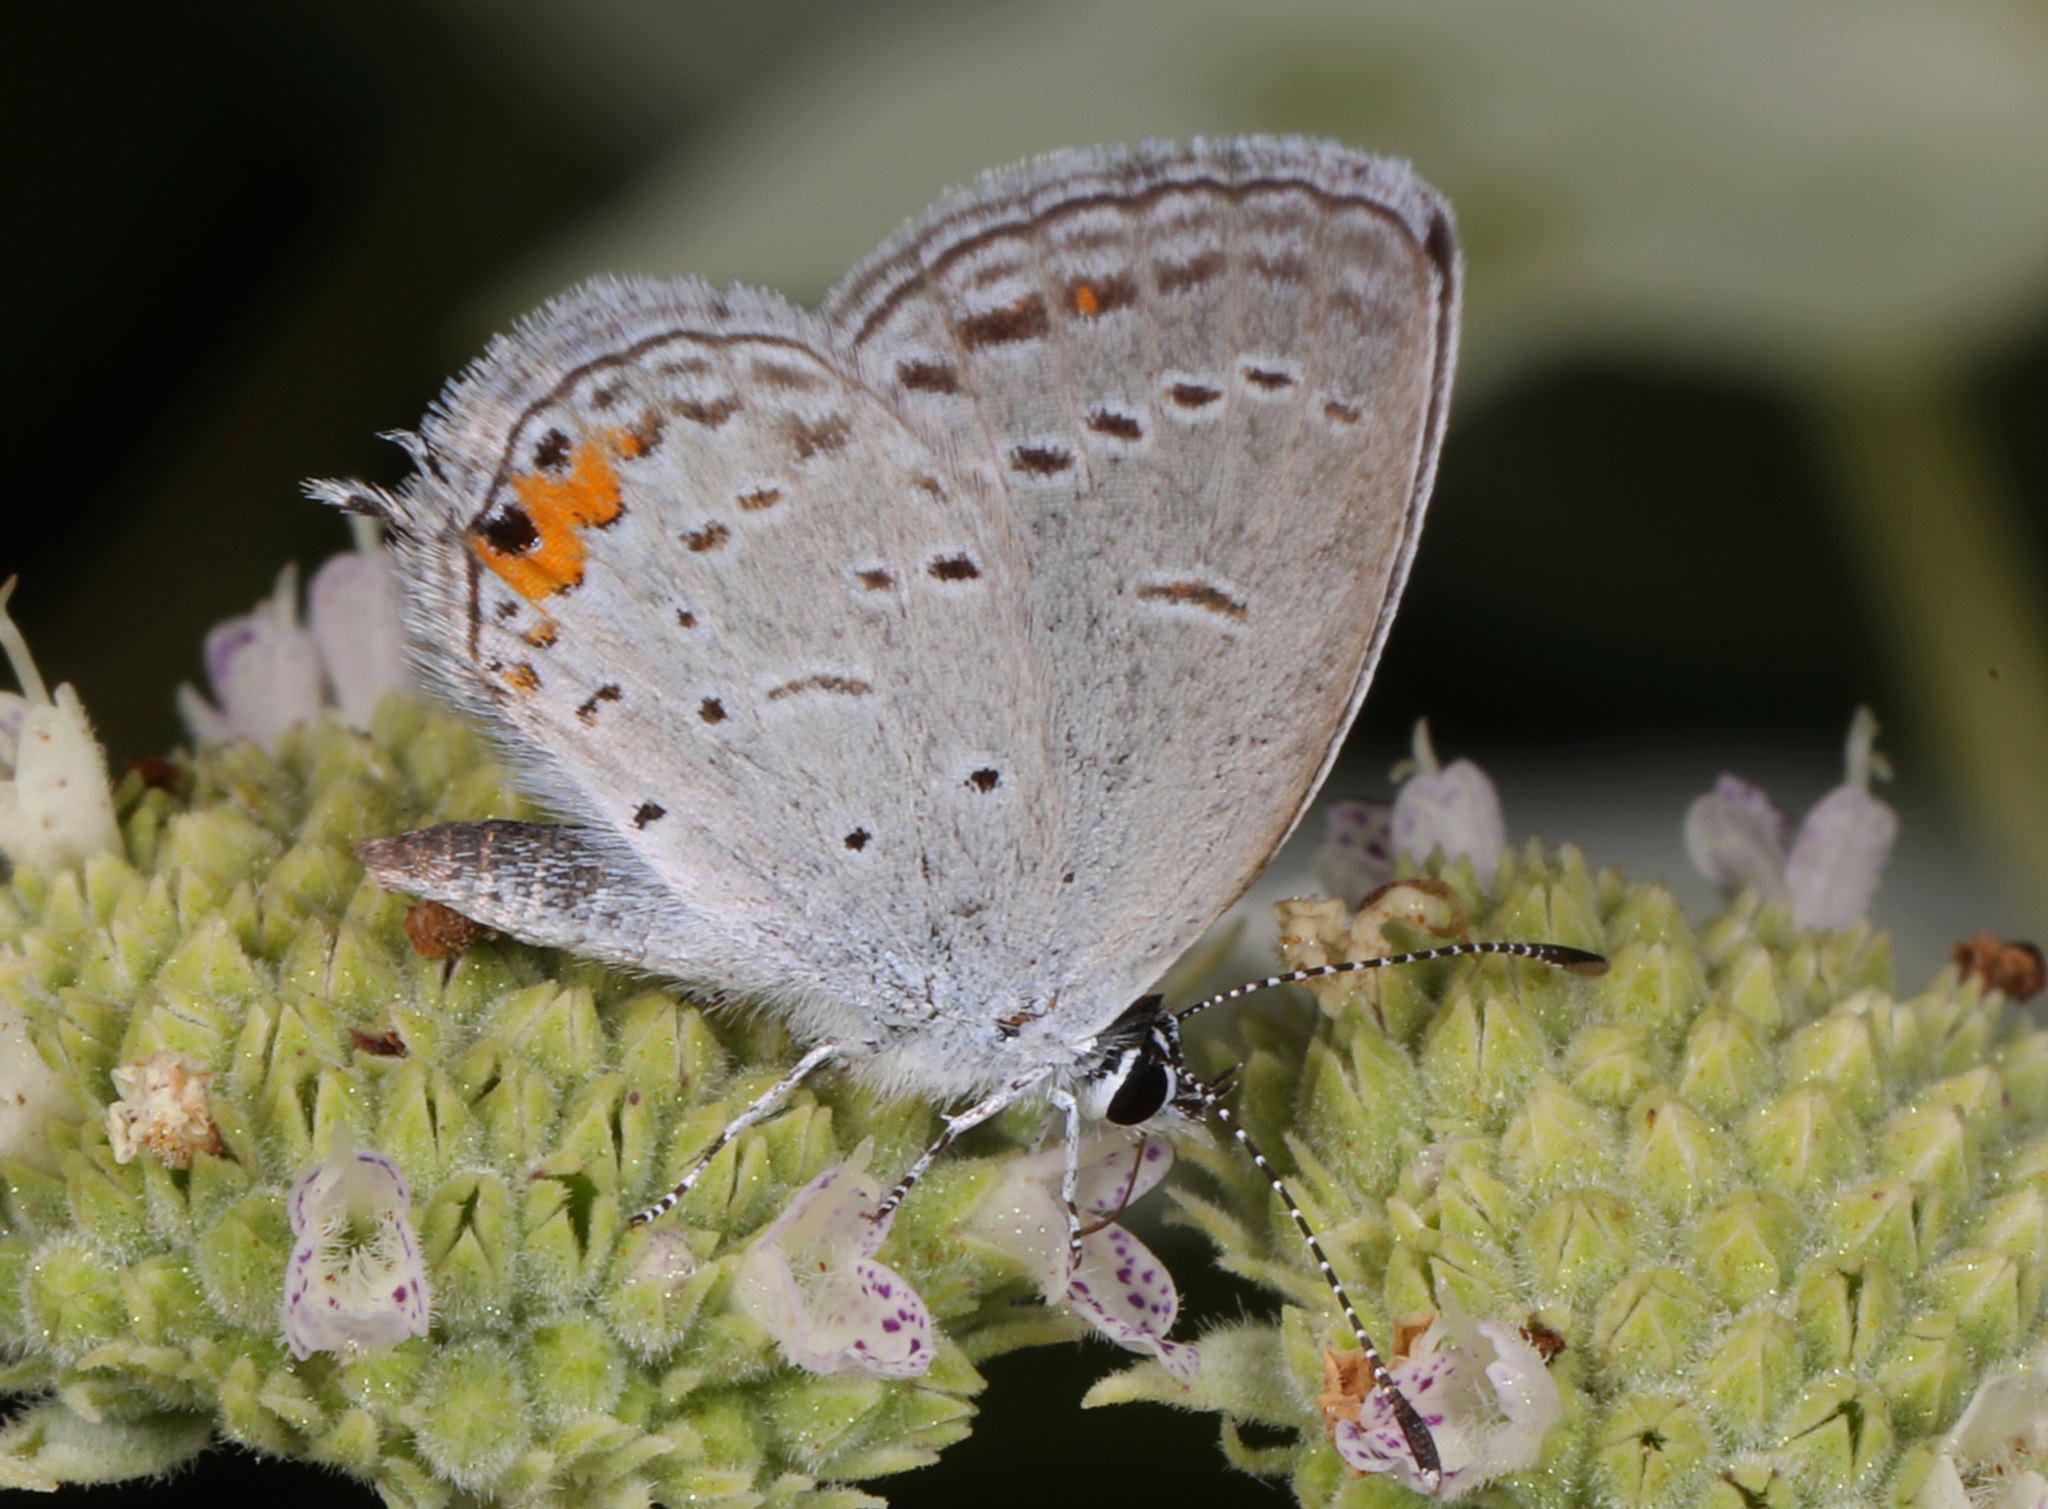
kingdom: Animalia
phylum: Arthropoda
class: Insecta
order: Lepidoptera
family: Lycaenidae
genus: Elkalyce
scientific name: Elkalyce comyntas
